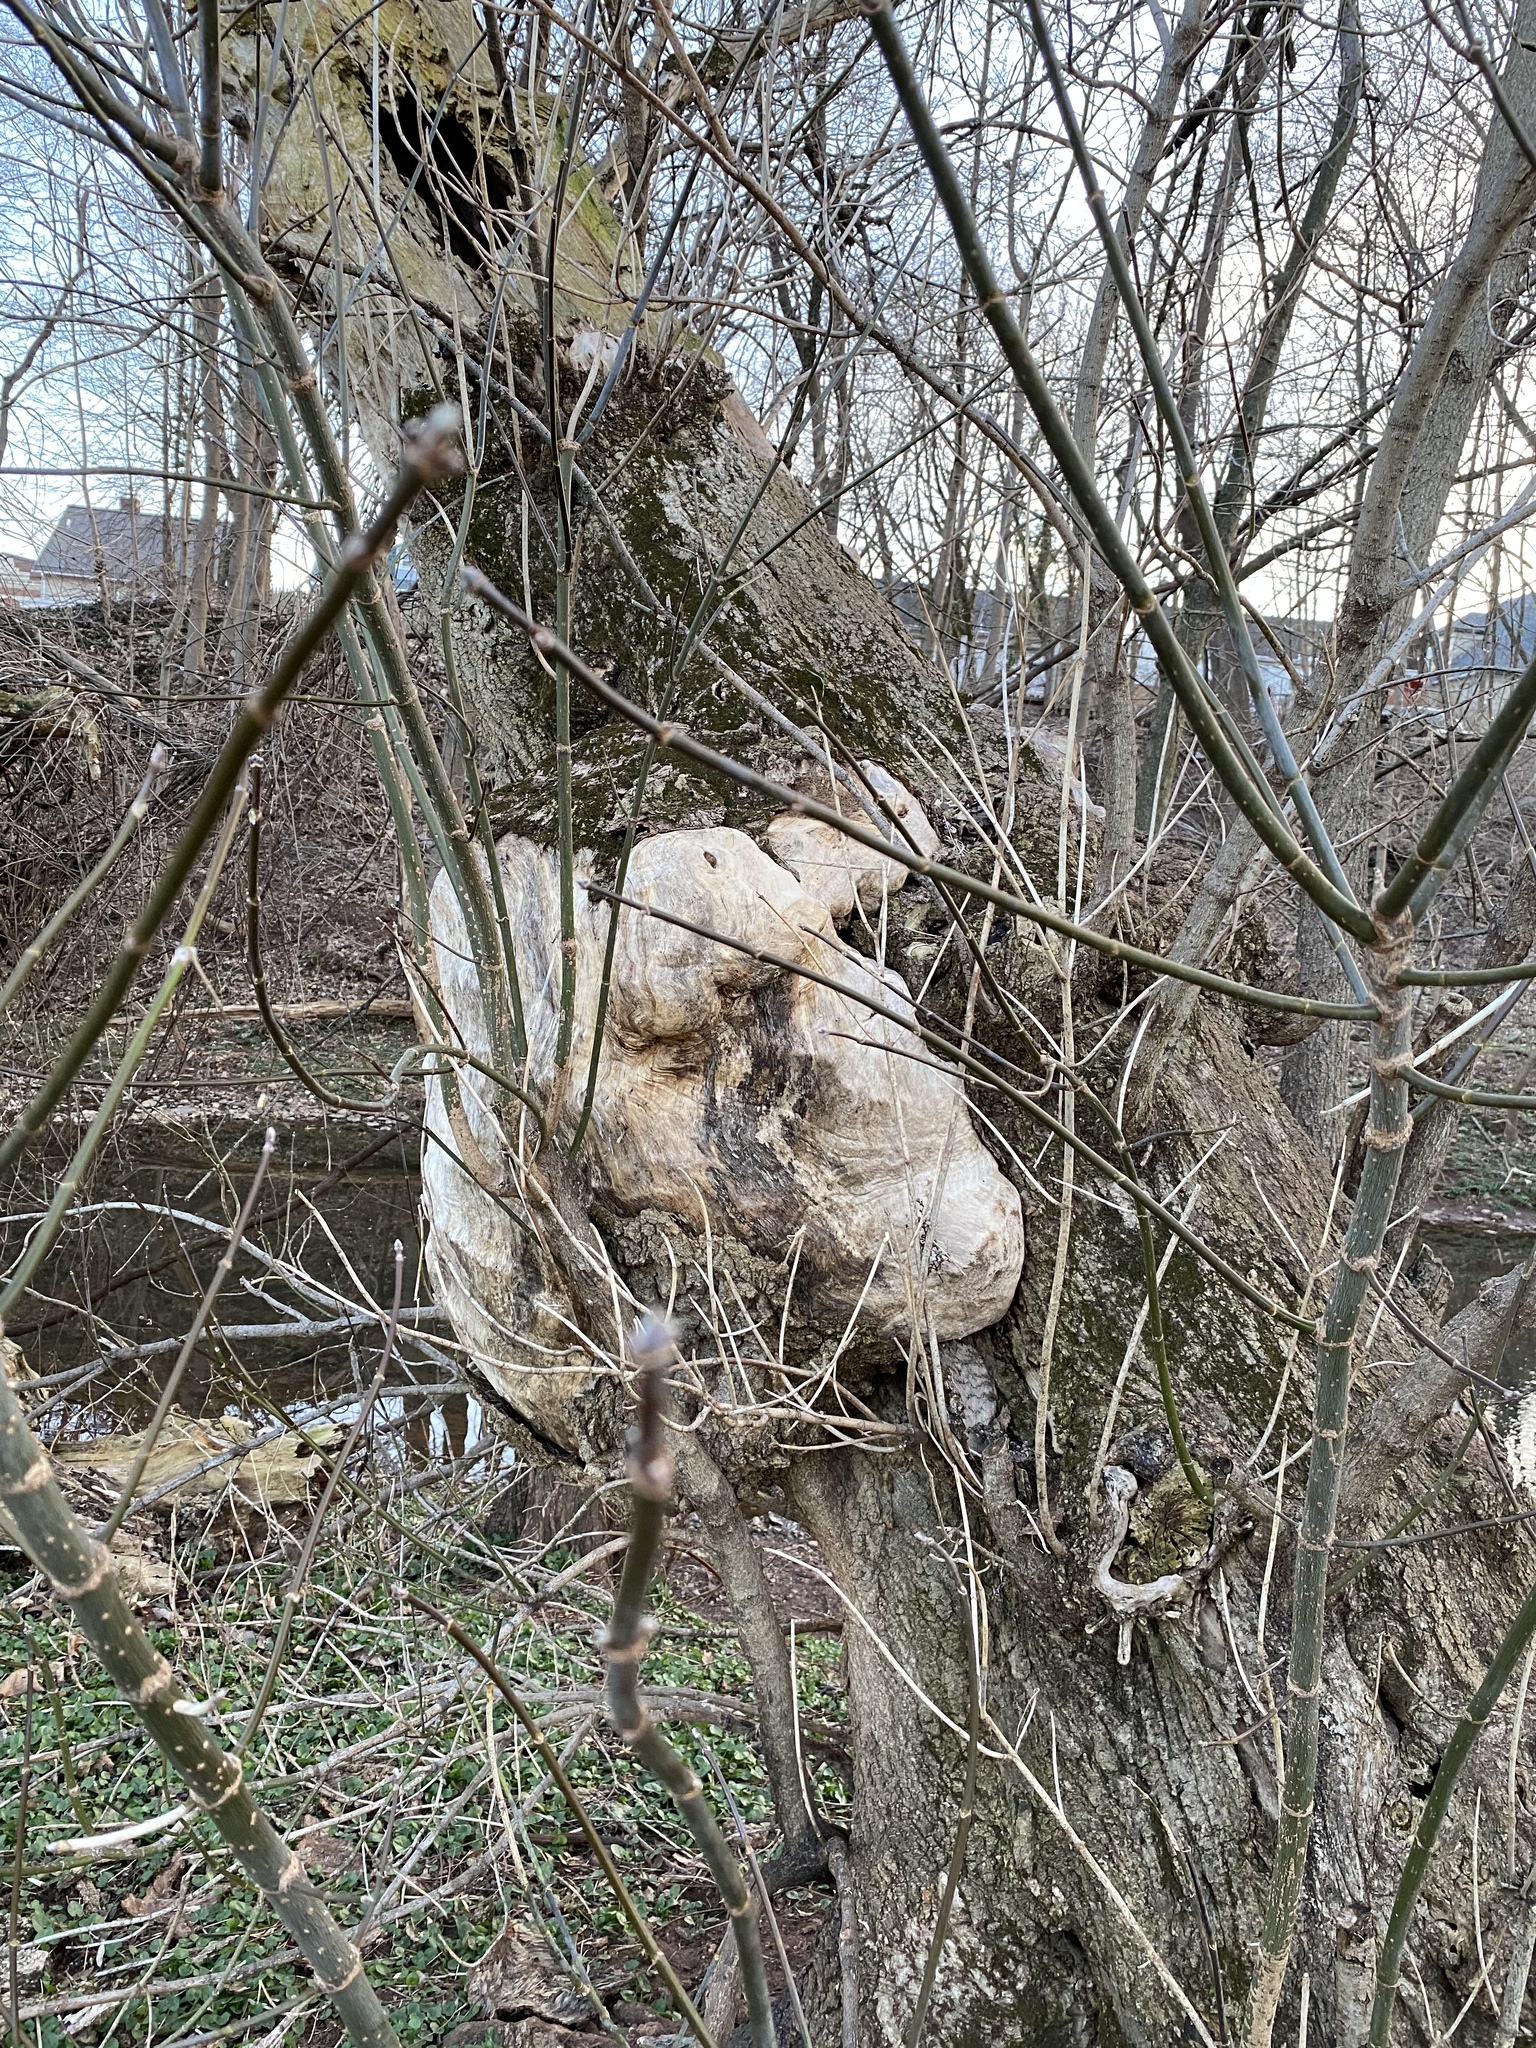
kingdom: Plantae
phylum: Tracheophyta
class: Magnoliopsida
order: Sapindales
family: Sapindaceae
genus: Acer
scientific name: Acer negundo
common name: Ashleaf maple
